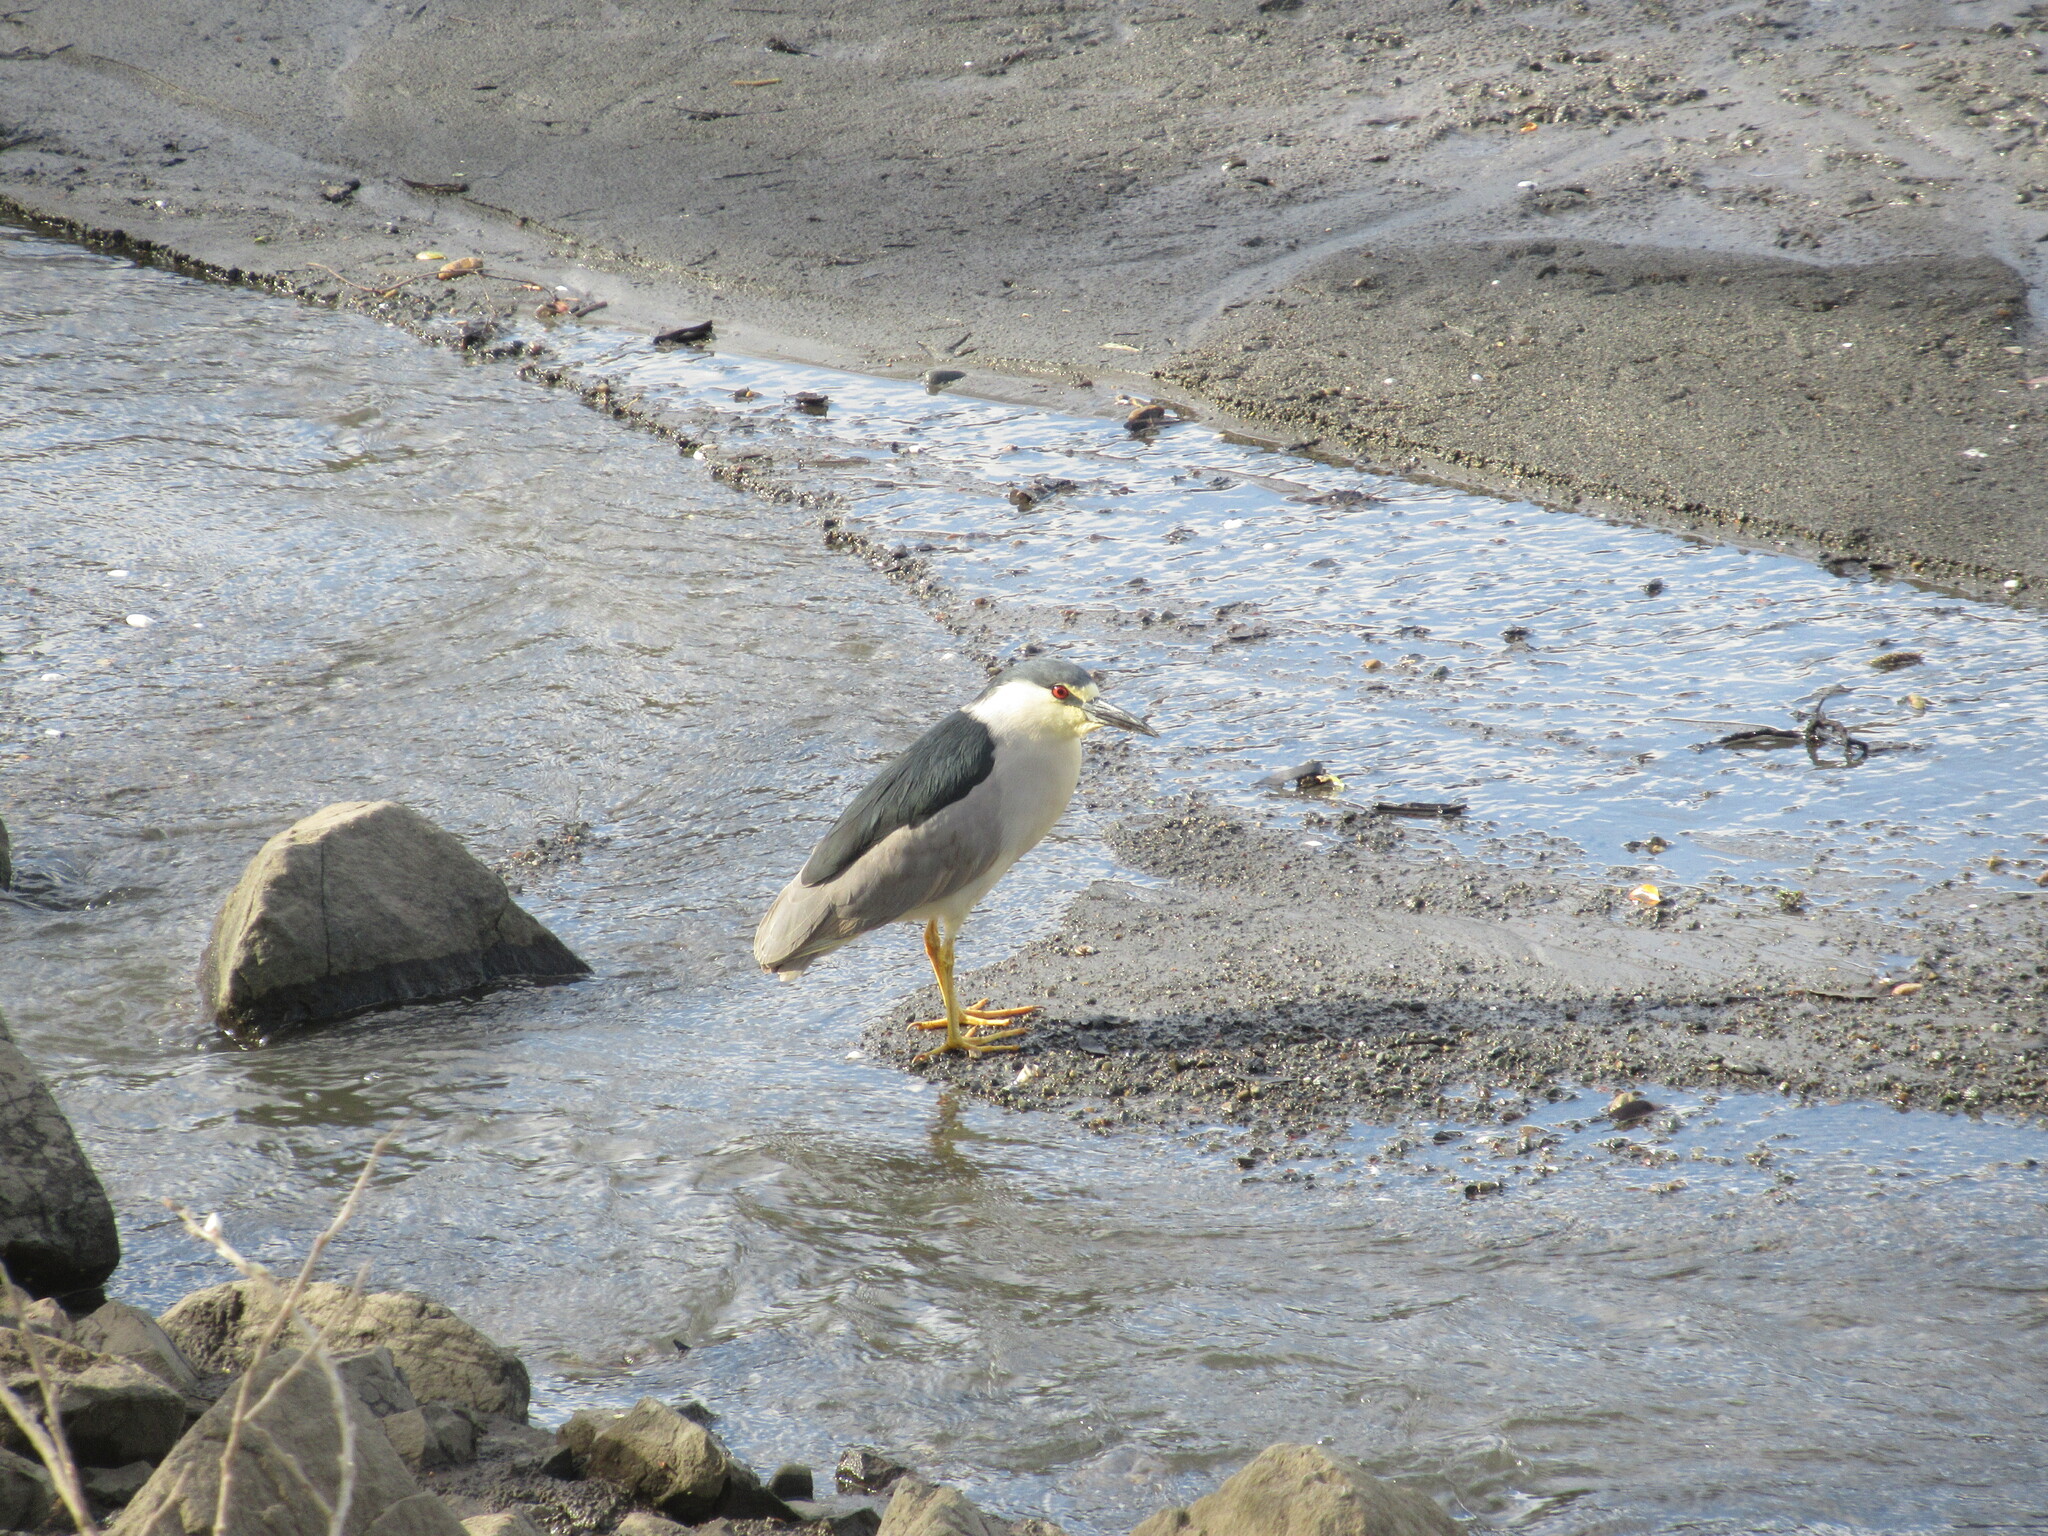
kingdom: Animalia
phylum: Chordata
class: Aves
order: Pelecaniformes
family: Ardeidae
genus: Nycticorax
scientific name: Nycticorax nycticorax
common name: Black-crowned night heron
